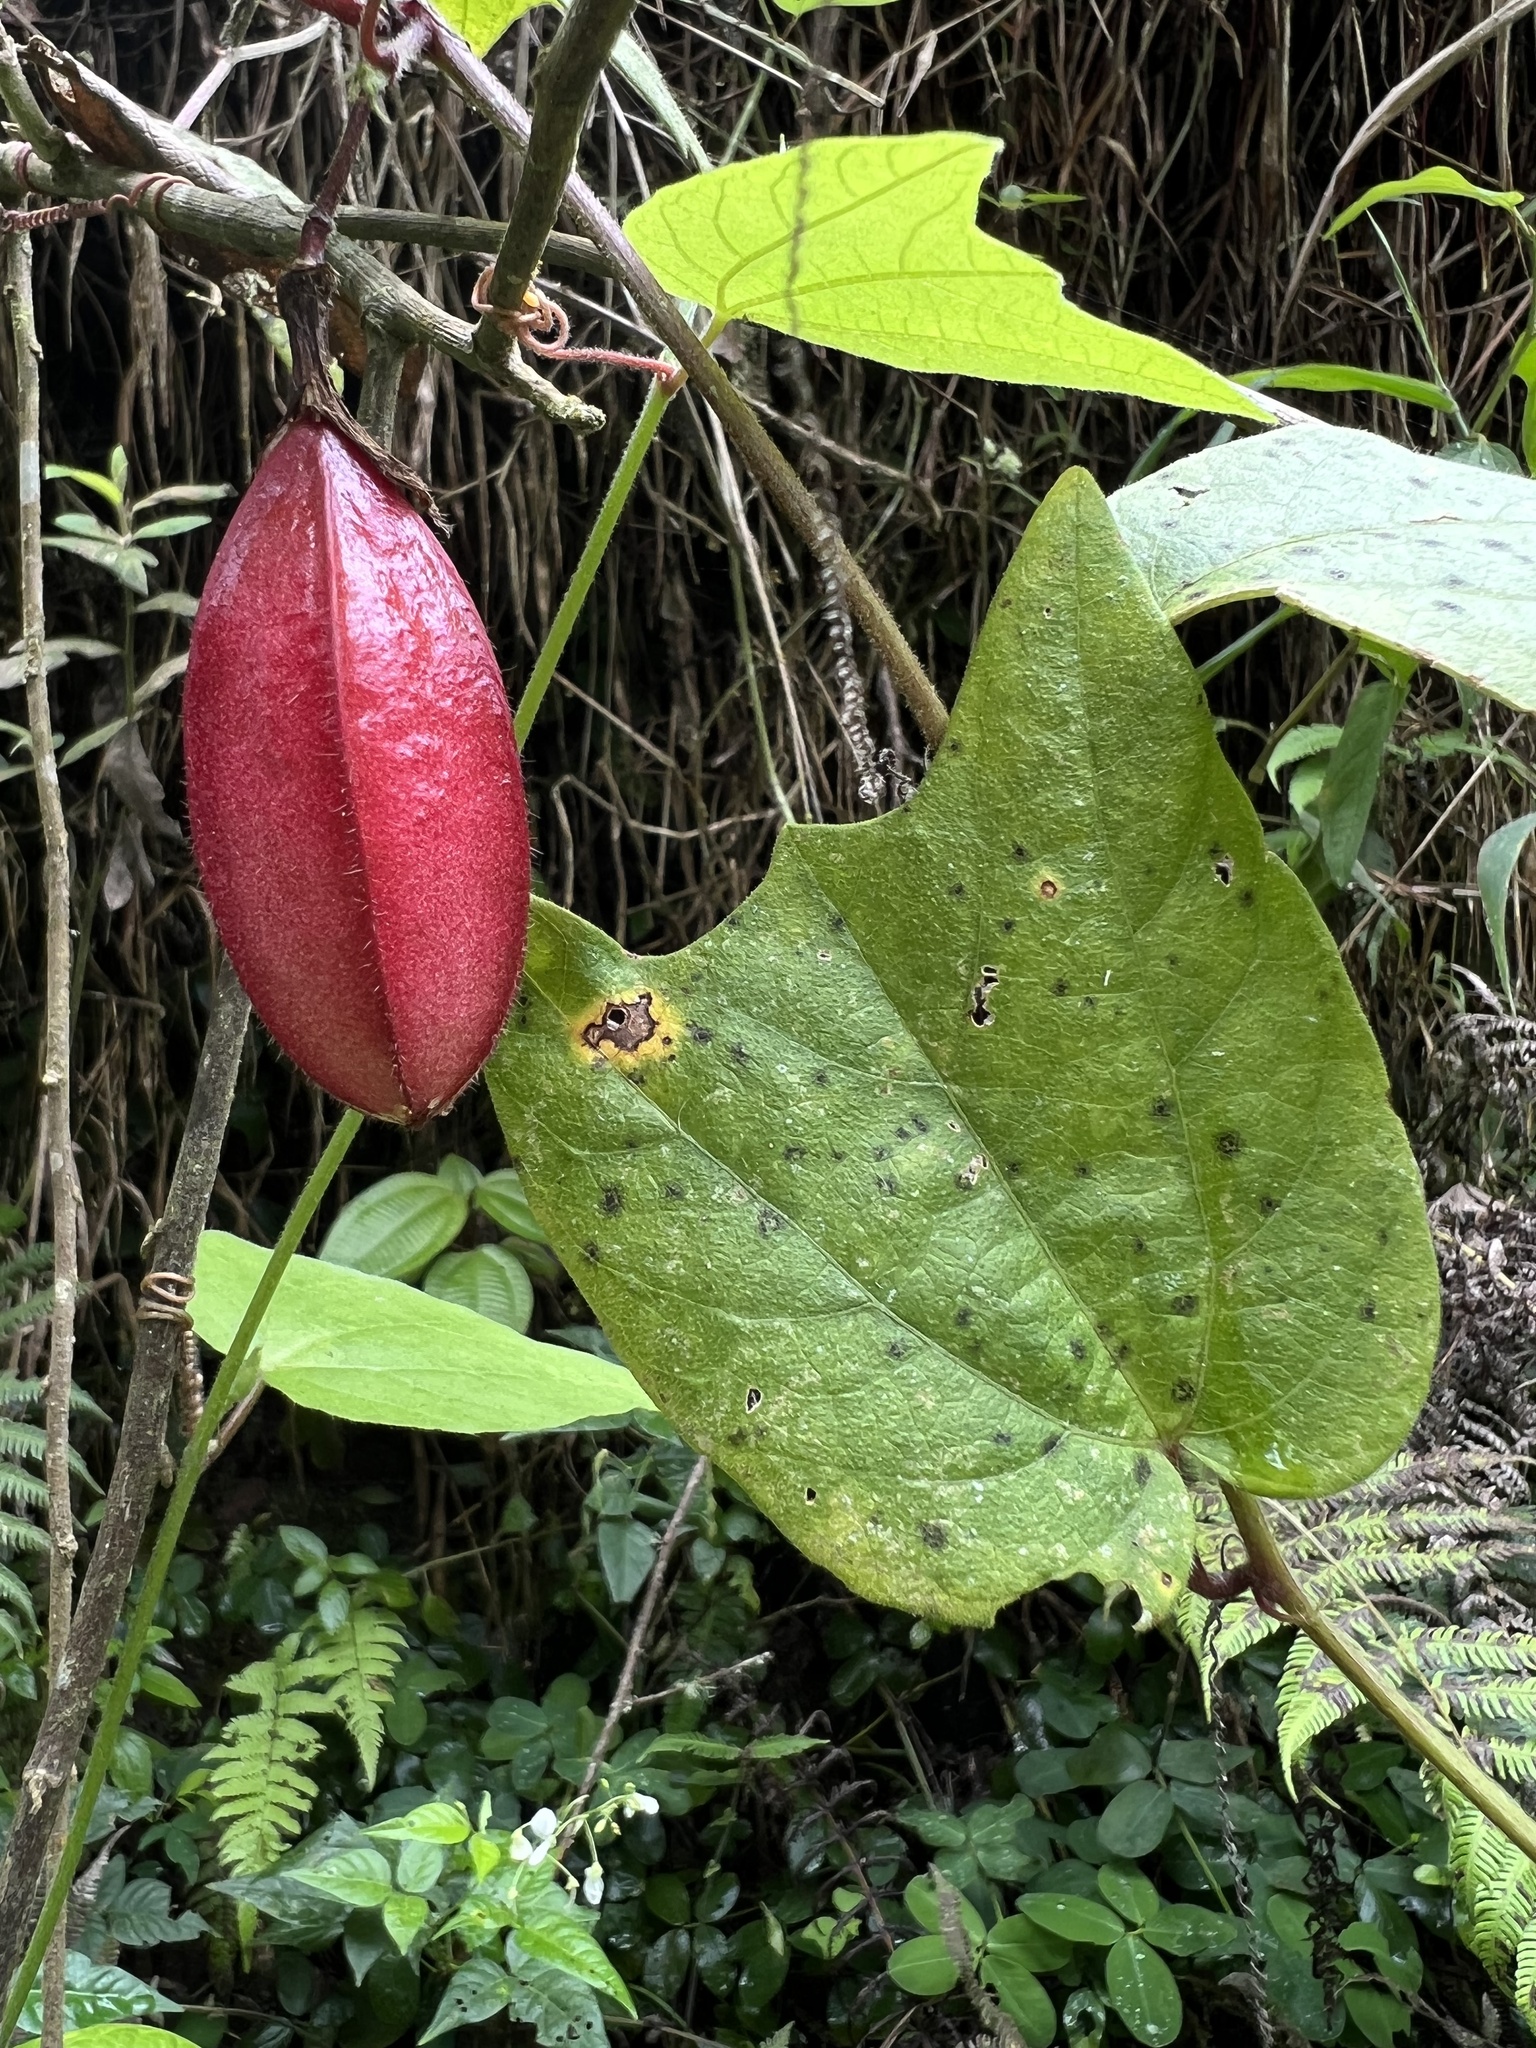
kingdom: Plantae
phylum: Tracheophyta
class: Magnoliopsida
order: Malpighiales
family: Passifloraceae
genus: Passiflora
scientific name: Passiflora cisnana
